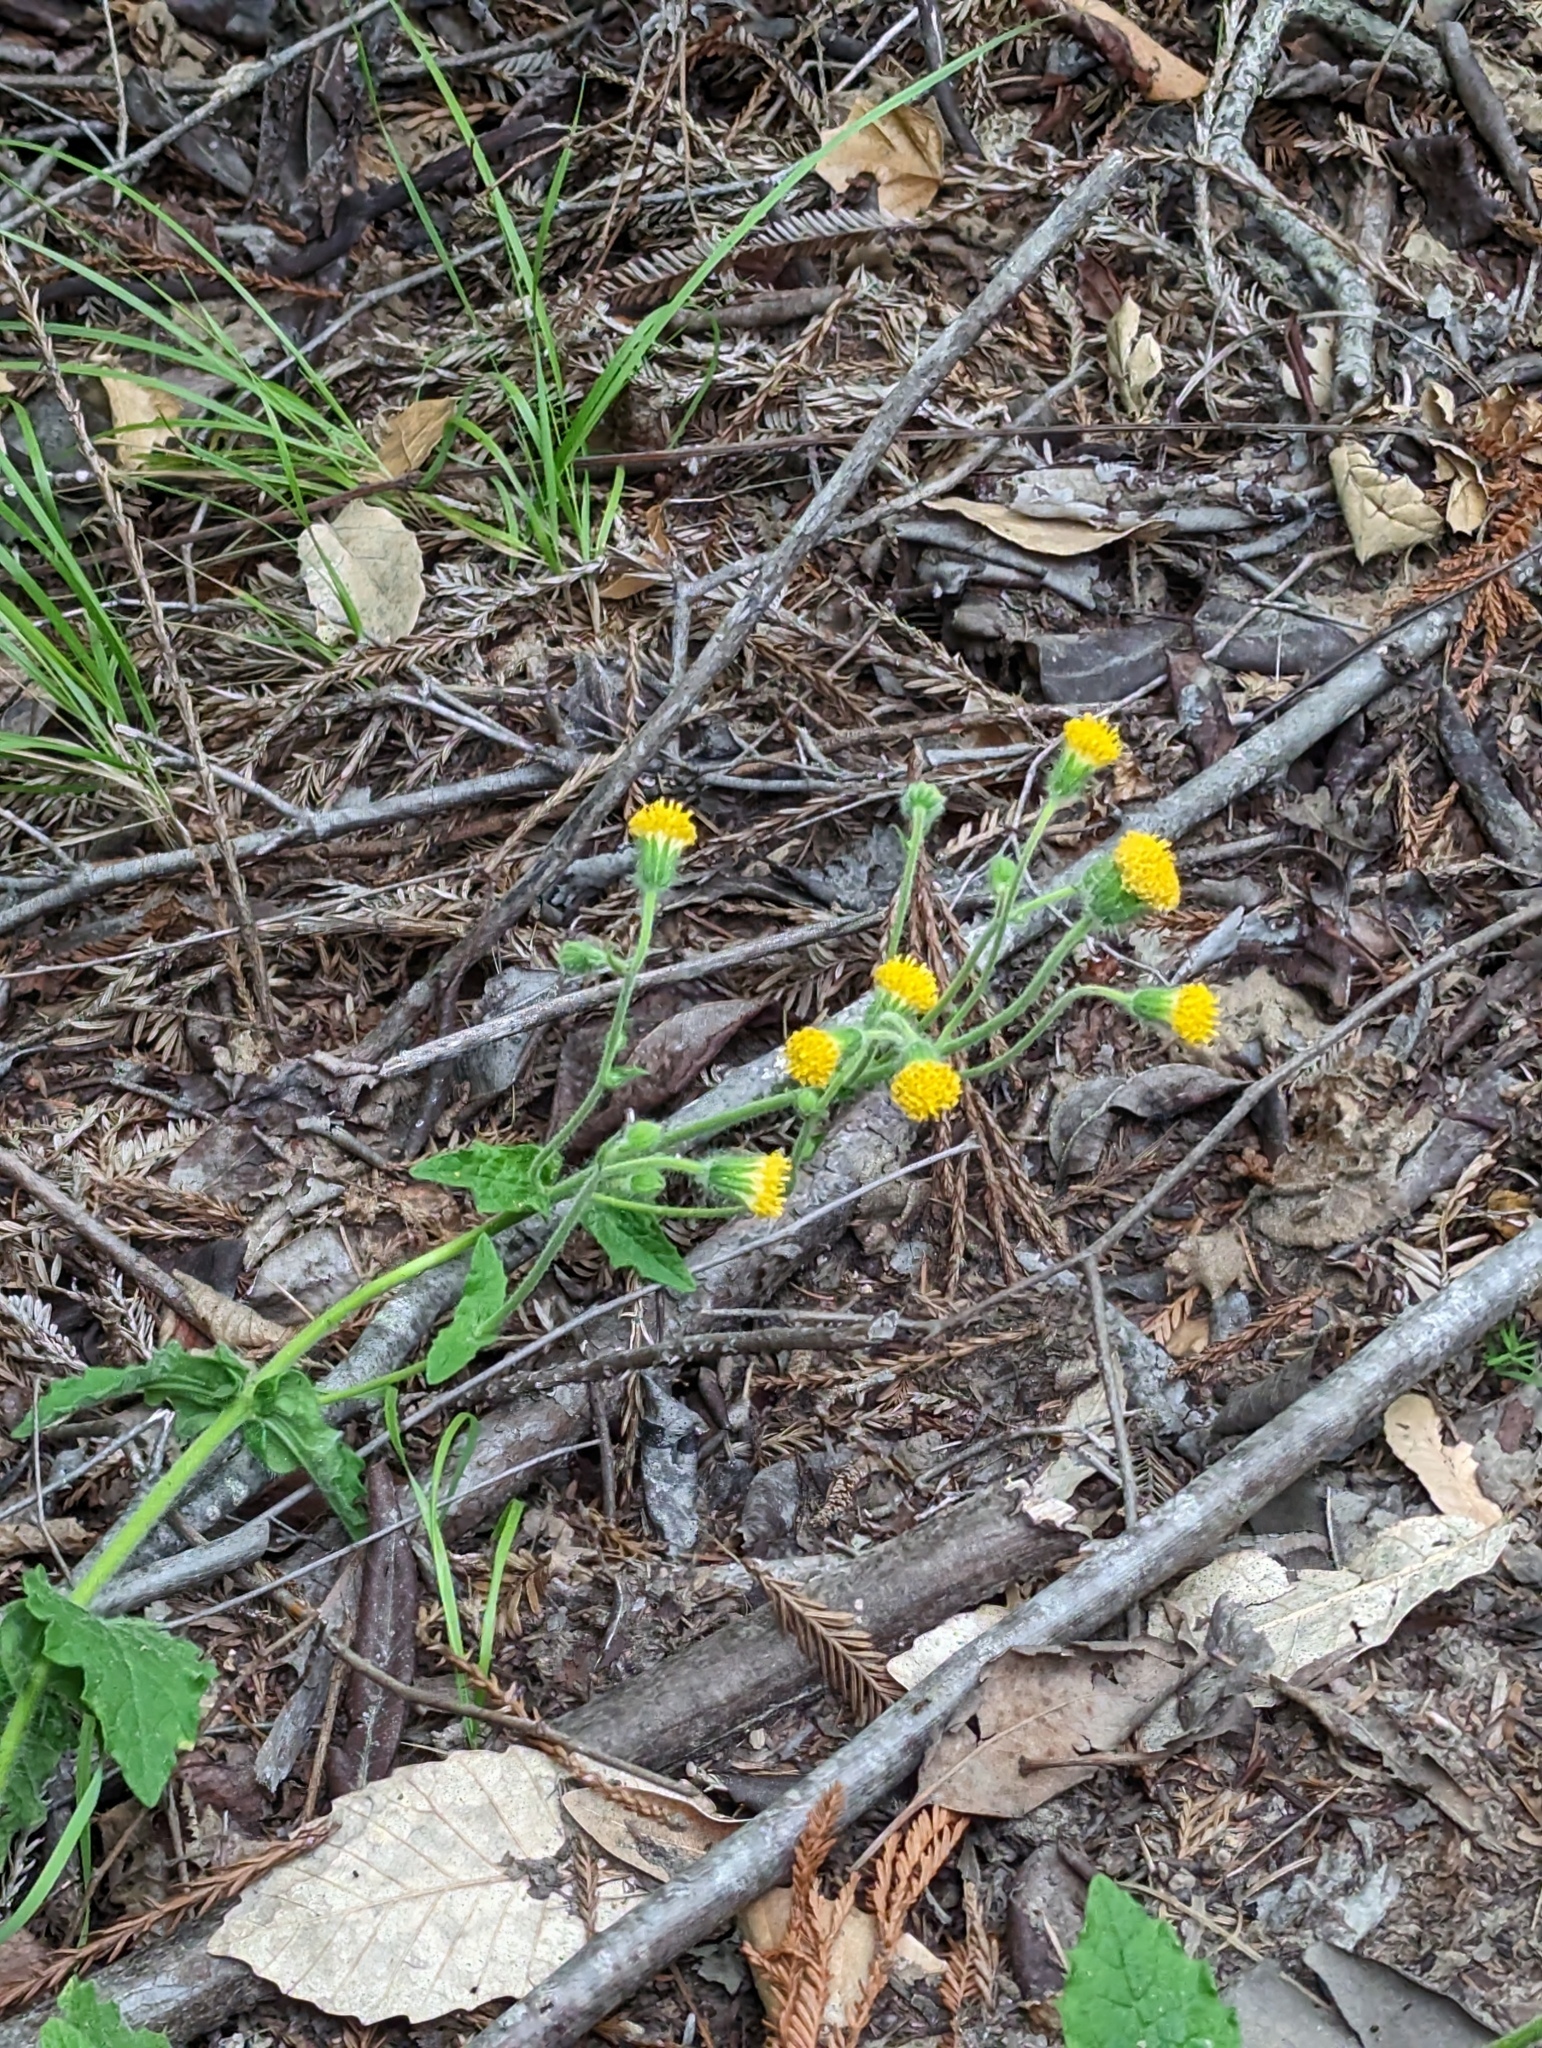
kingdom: Plantae
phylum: Tracheophyta
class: Magnoliopsida
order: Asterales
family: Asteraceae
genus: Arnica
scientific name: Arnica discoidea
